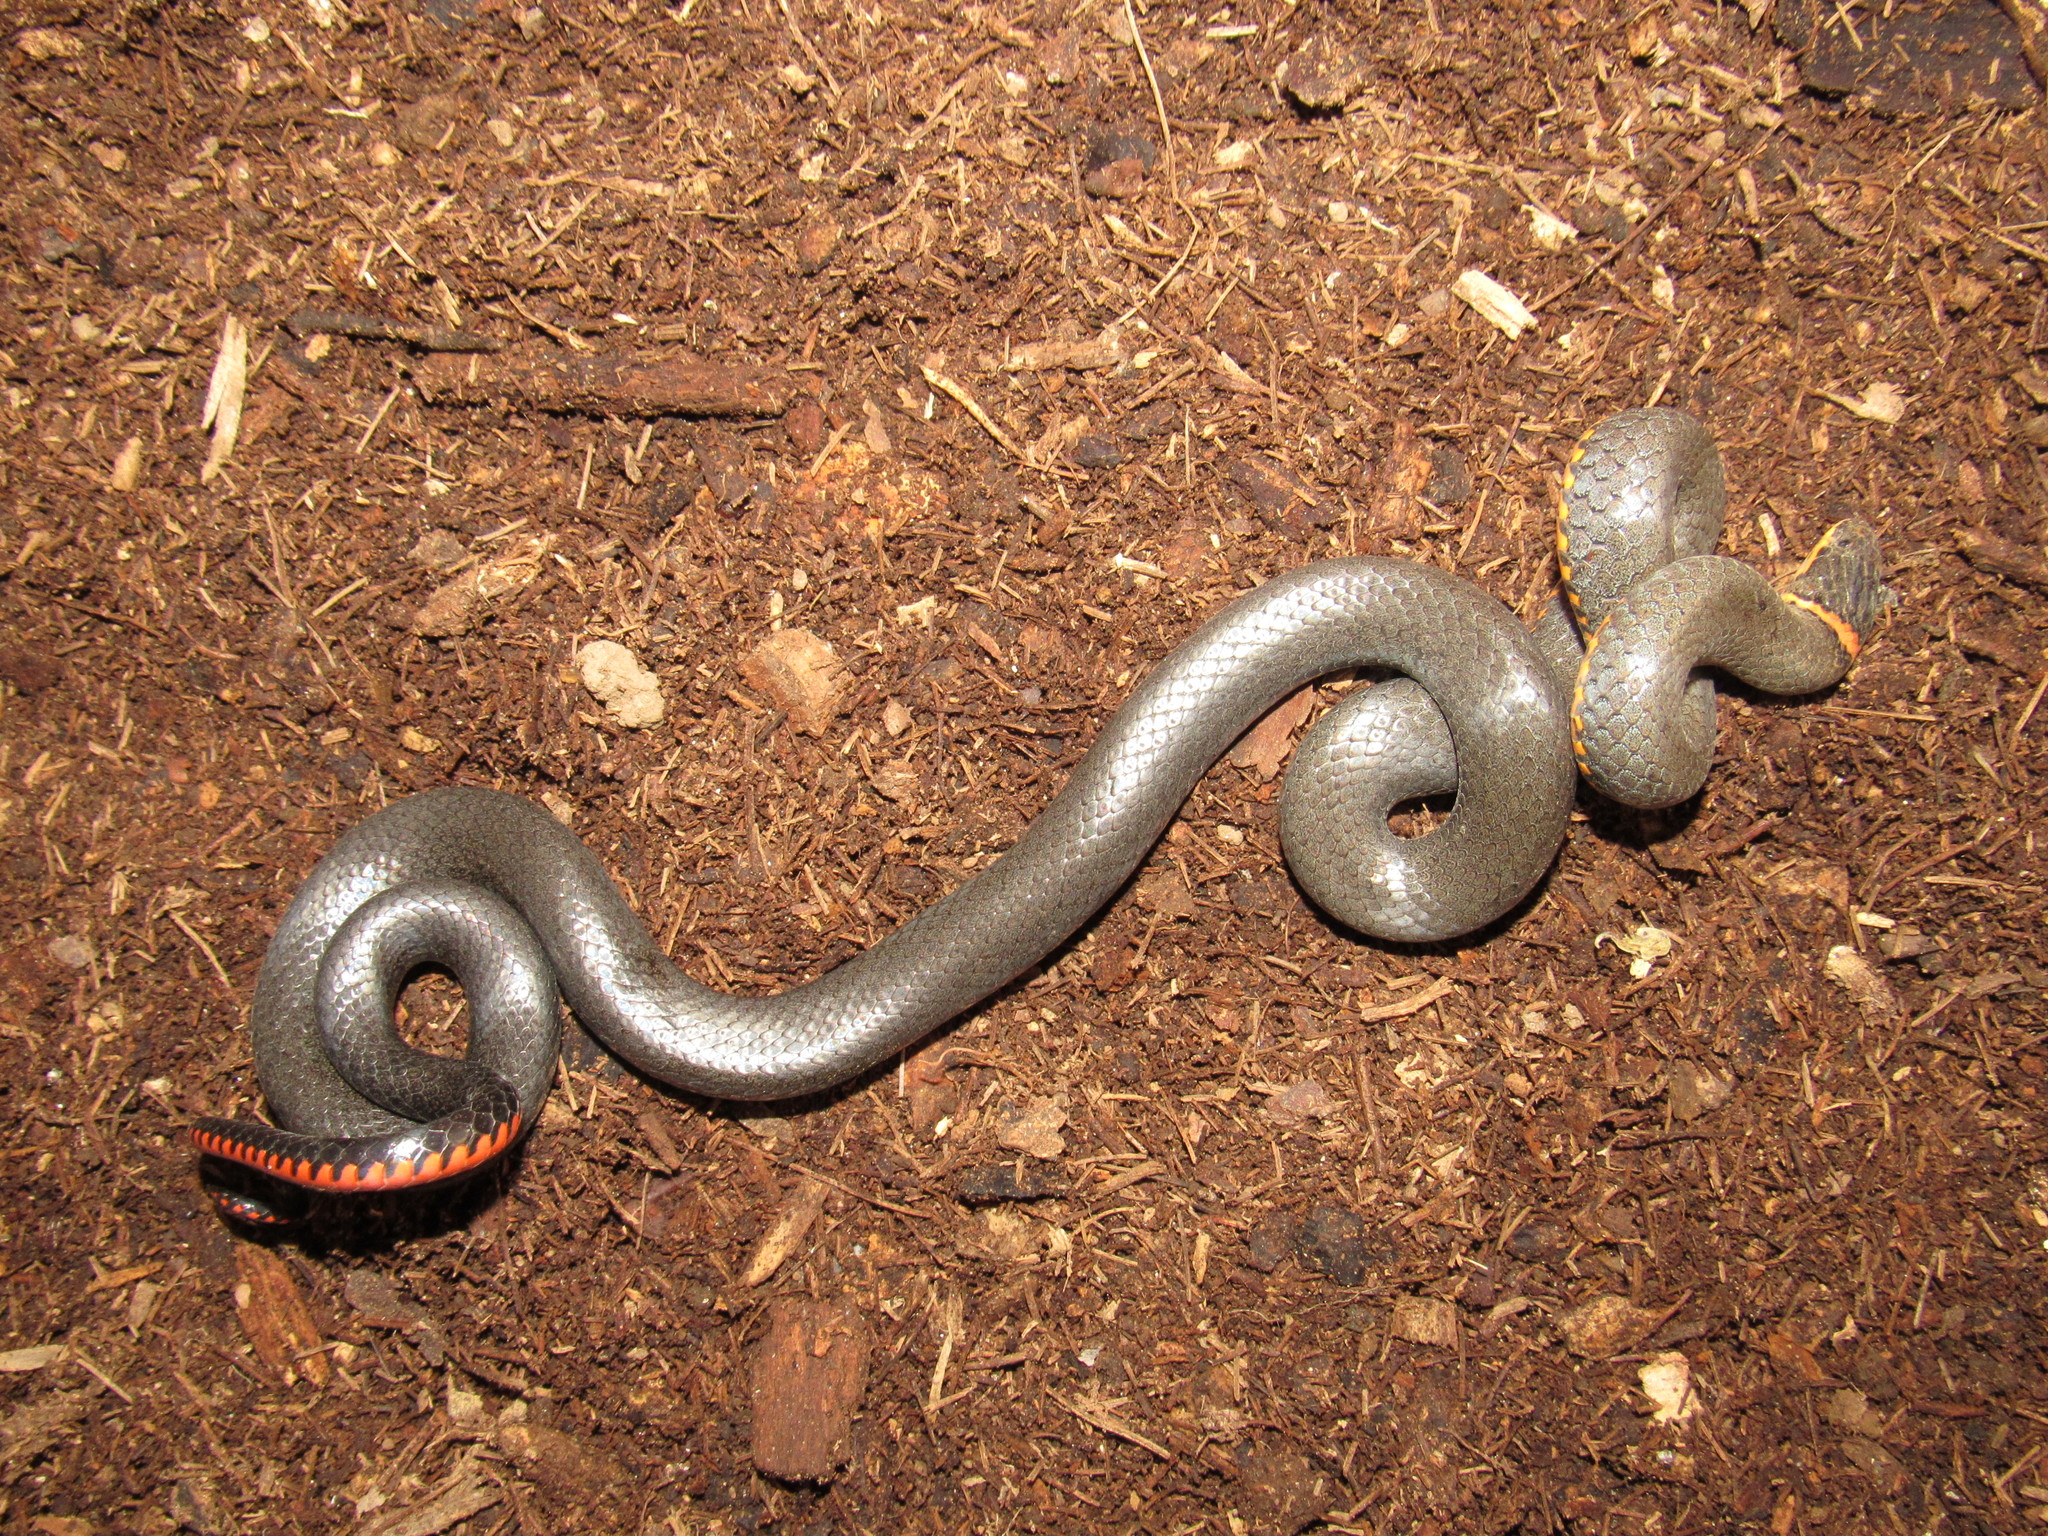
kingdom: Animalia
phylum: Chordata
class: Squamata
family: Colubridae
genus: Diadophis
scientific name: Diadophis punctatus
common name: Ringneck snake
